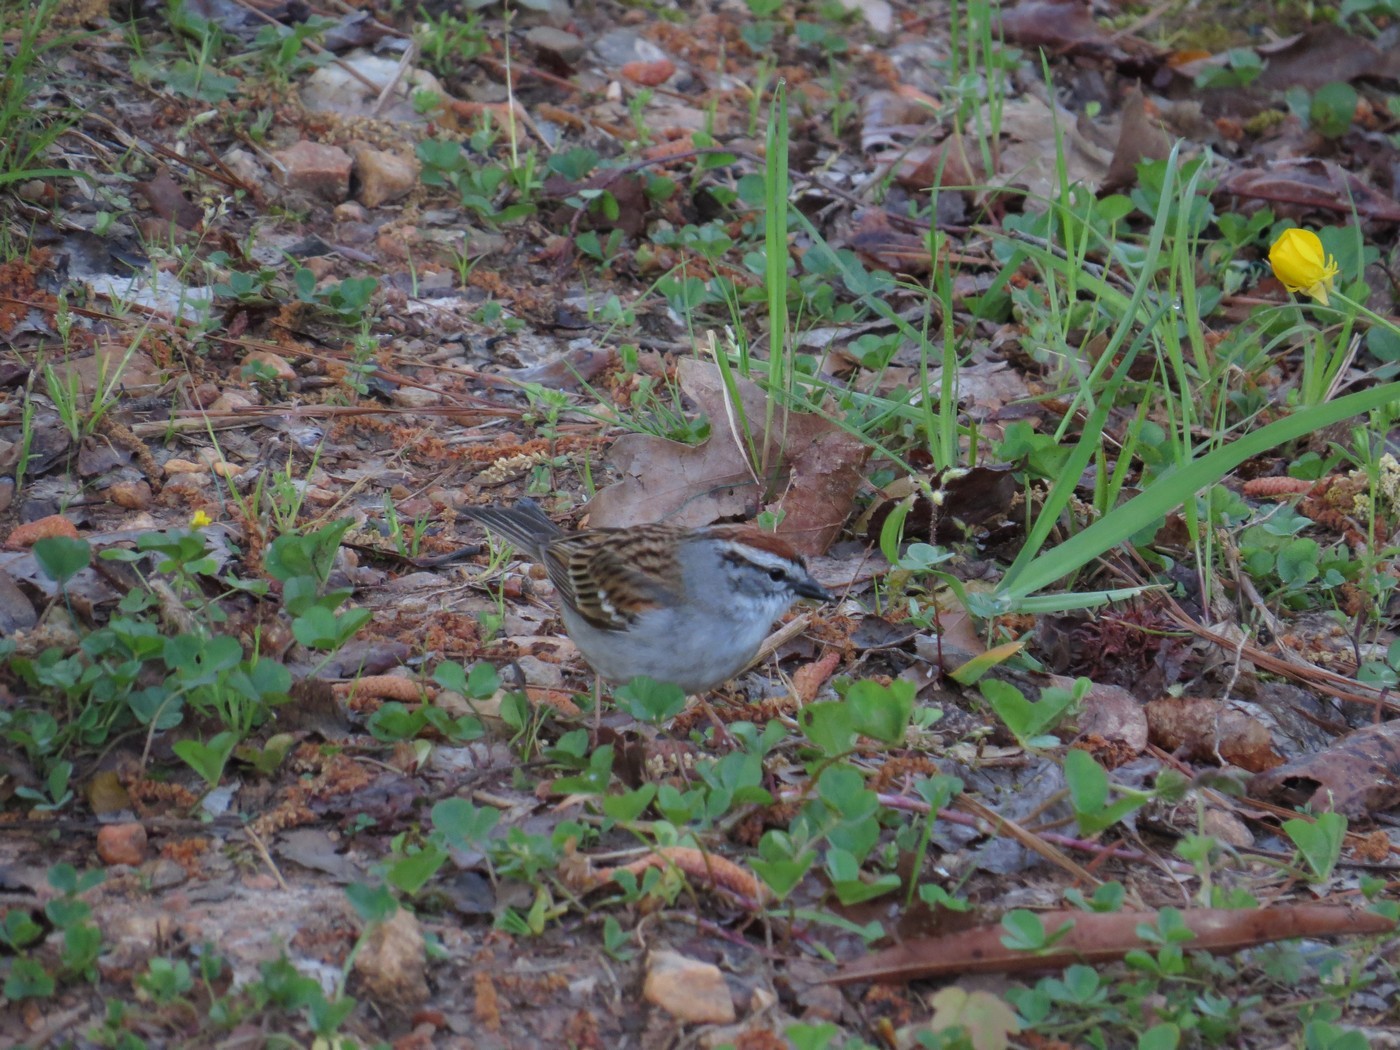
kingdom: Animalia
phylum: Chordata
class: Aves
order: Passeriformes
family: Passerellidae
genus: Spizella
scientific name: Spizella passerina
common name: Chipping sparrow
